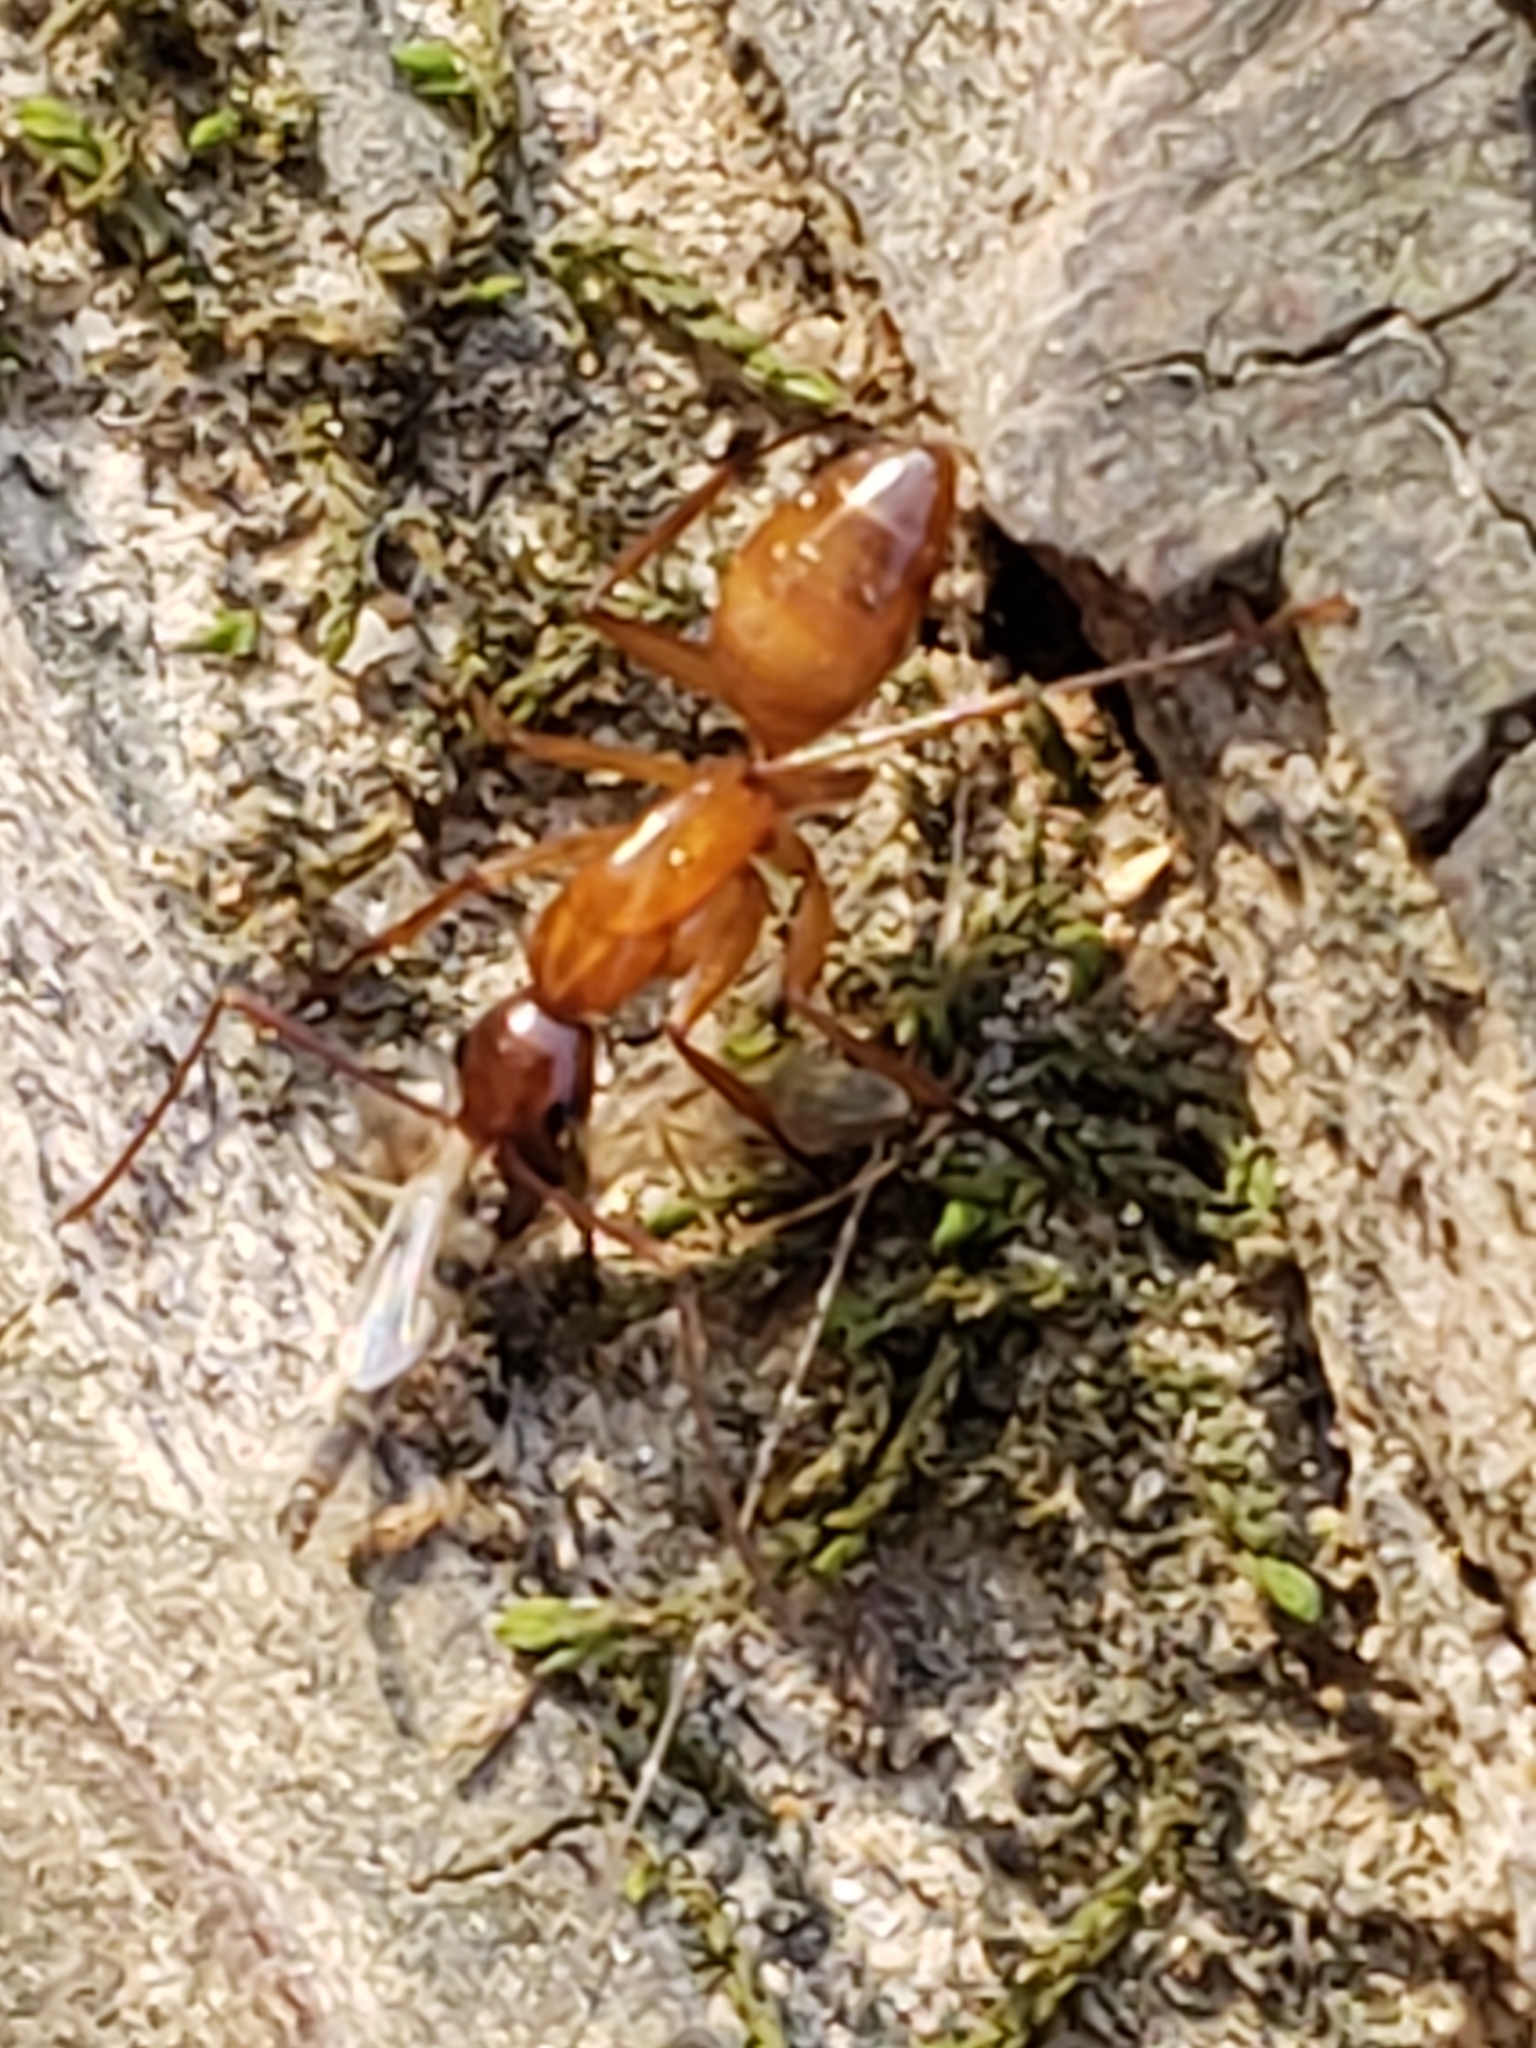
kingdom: Animalia
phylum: Arthropoda
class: Insecta
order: Hymenoptera
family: Formicidae
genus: Camponotus
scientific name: Camponotus castaneus
